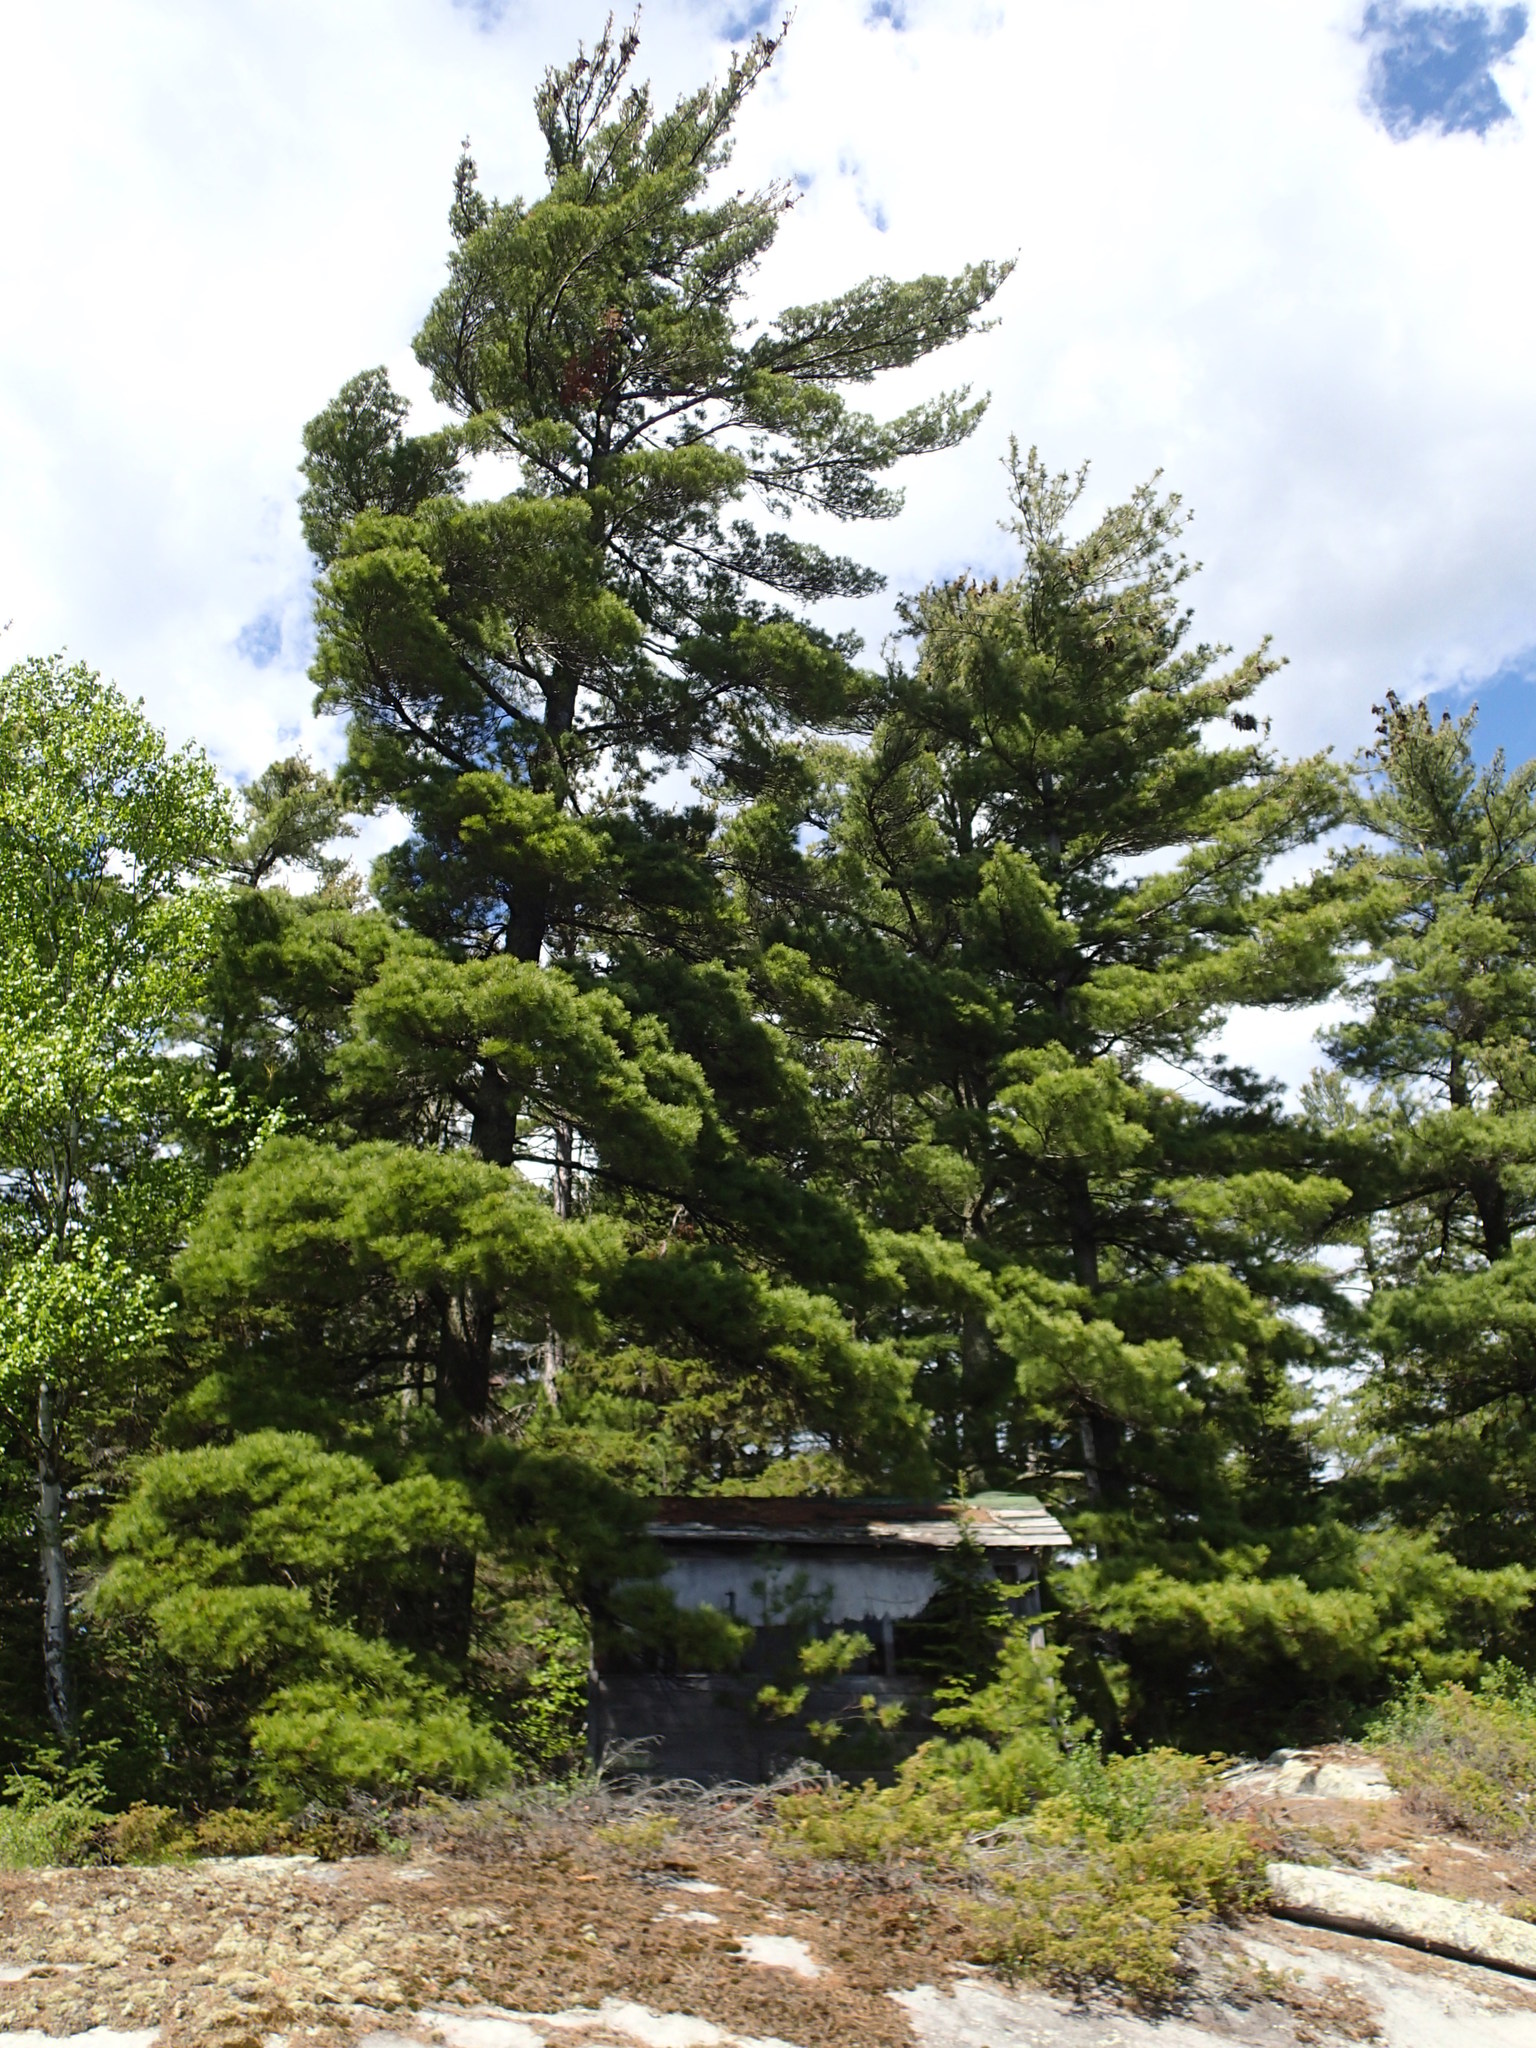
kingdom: Plantae
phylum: Tracheophyta
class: Pinopsida
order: Pinales
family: Pinaceae
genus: Pinus
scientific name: Pinus strobus
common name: Weymouth pine
